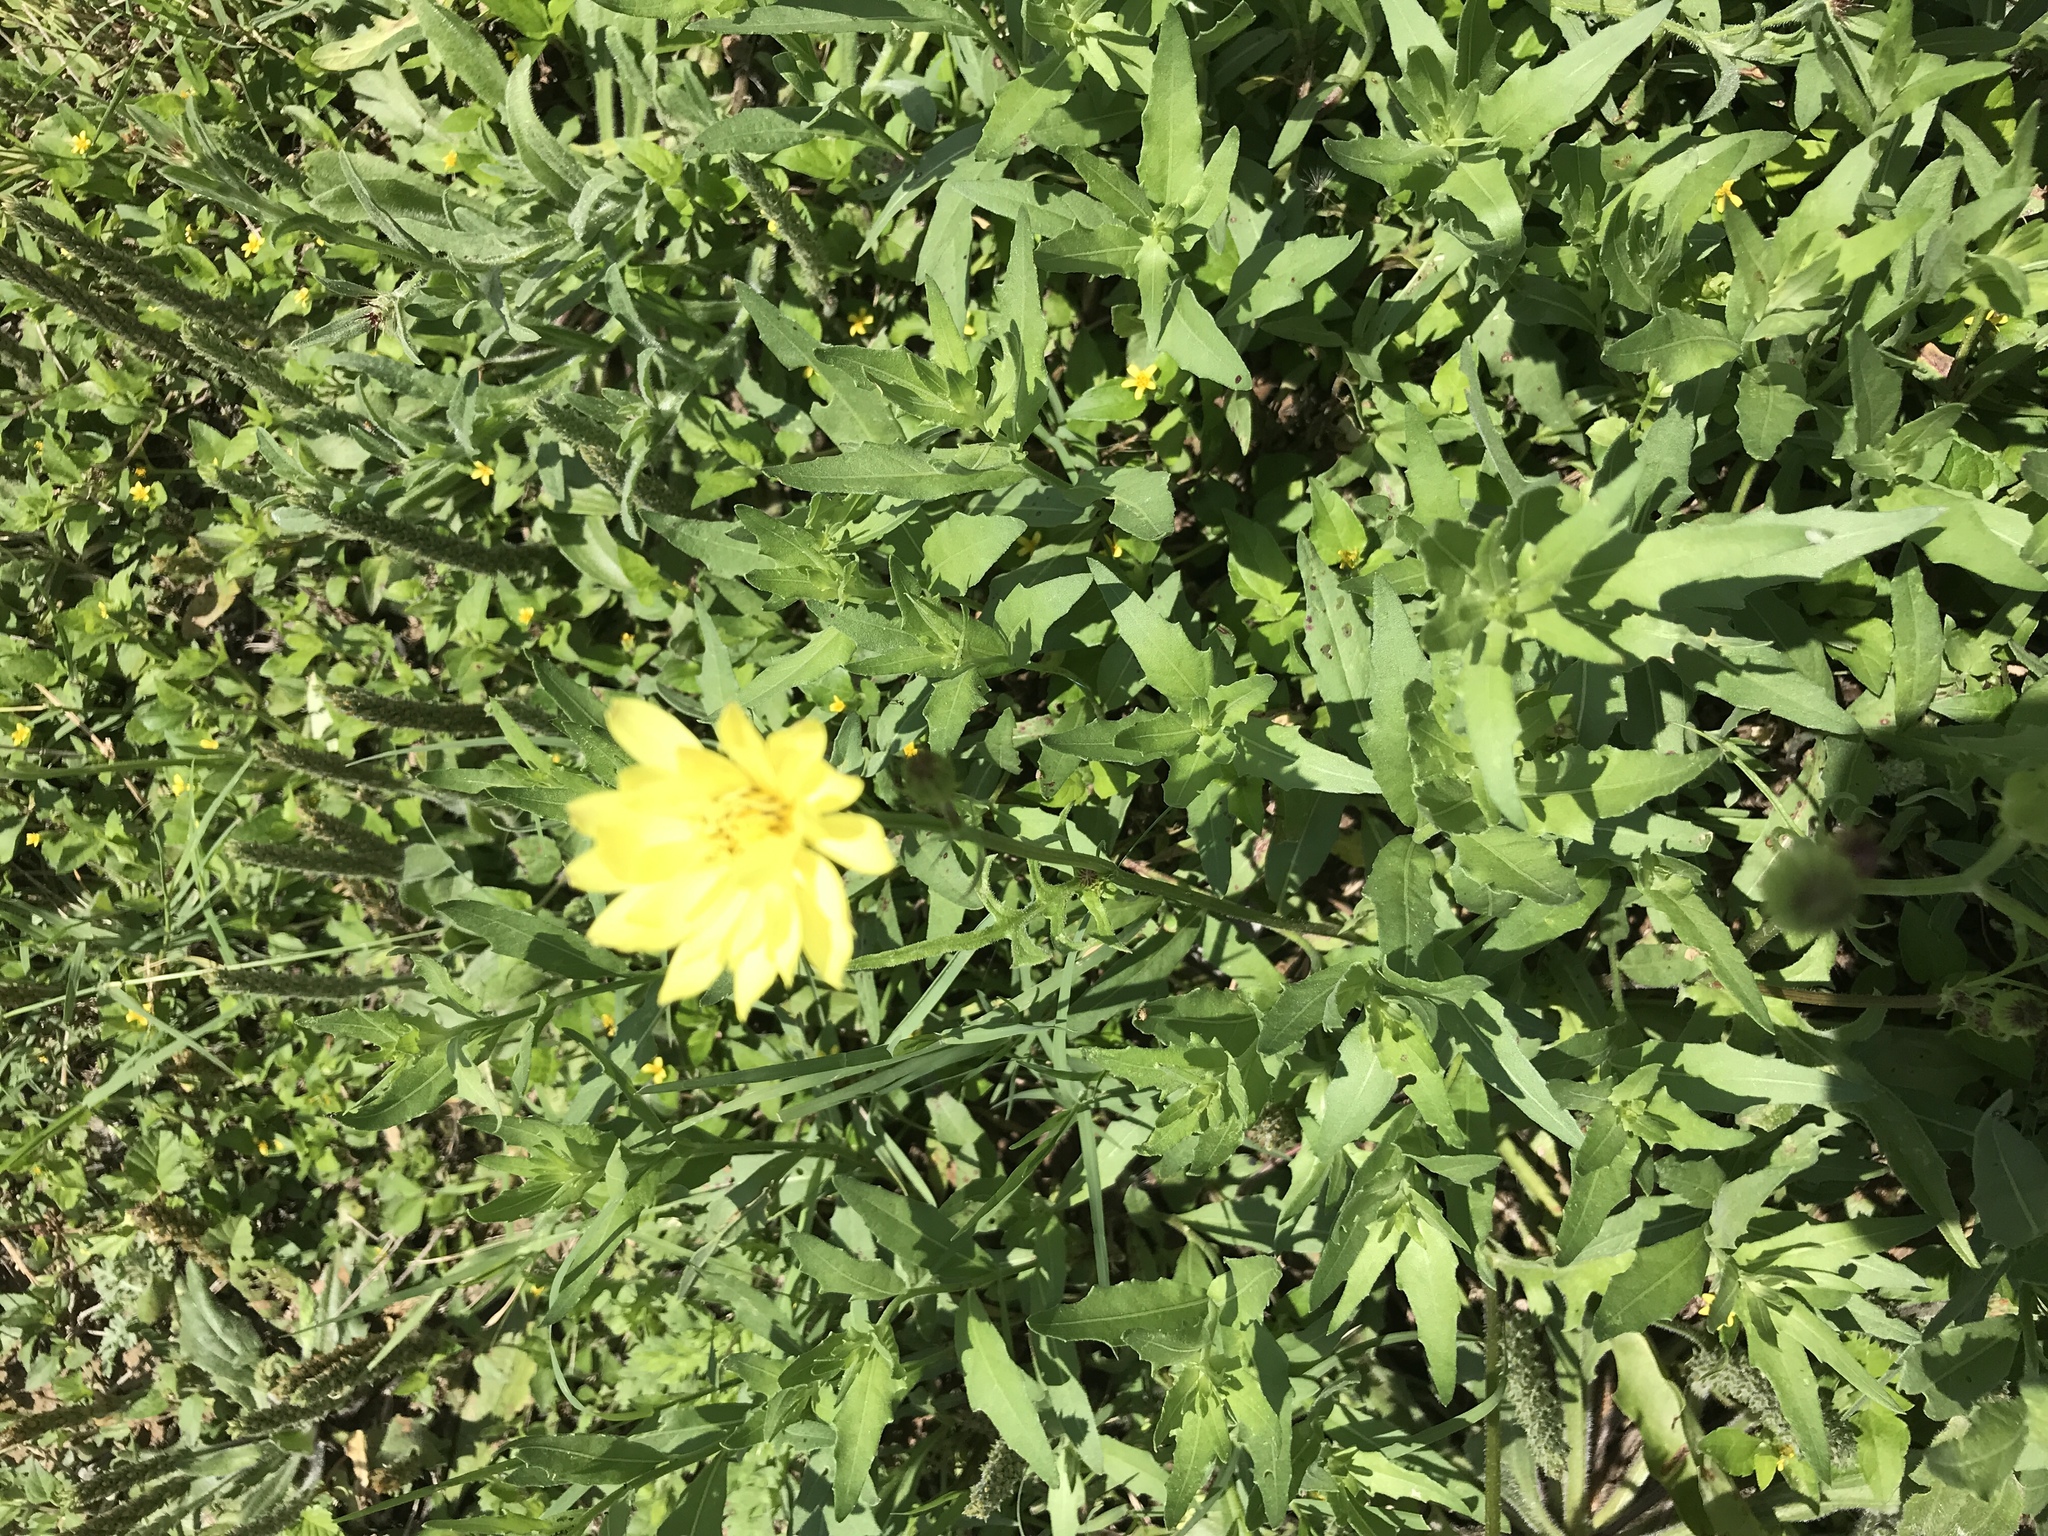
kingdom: Plantae
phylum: Tracheophyta
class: Magnoliopsida
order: Asterales
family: Asteraceae
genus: Pyrrhopappus
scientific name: Pyrrhopappus pauciflorus
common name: Texas false dandelion
